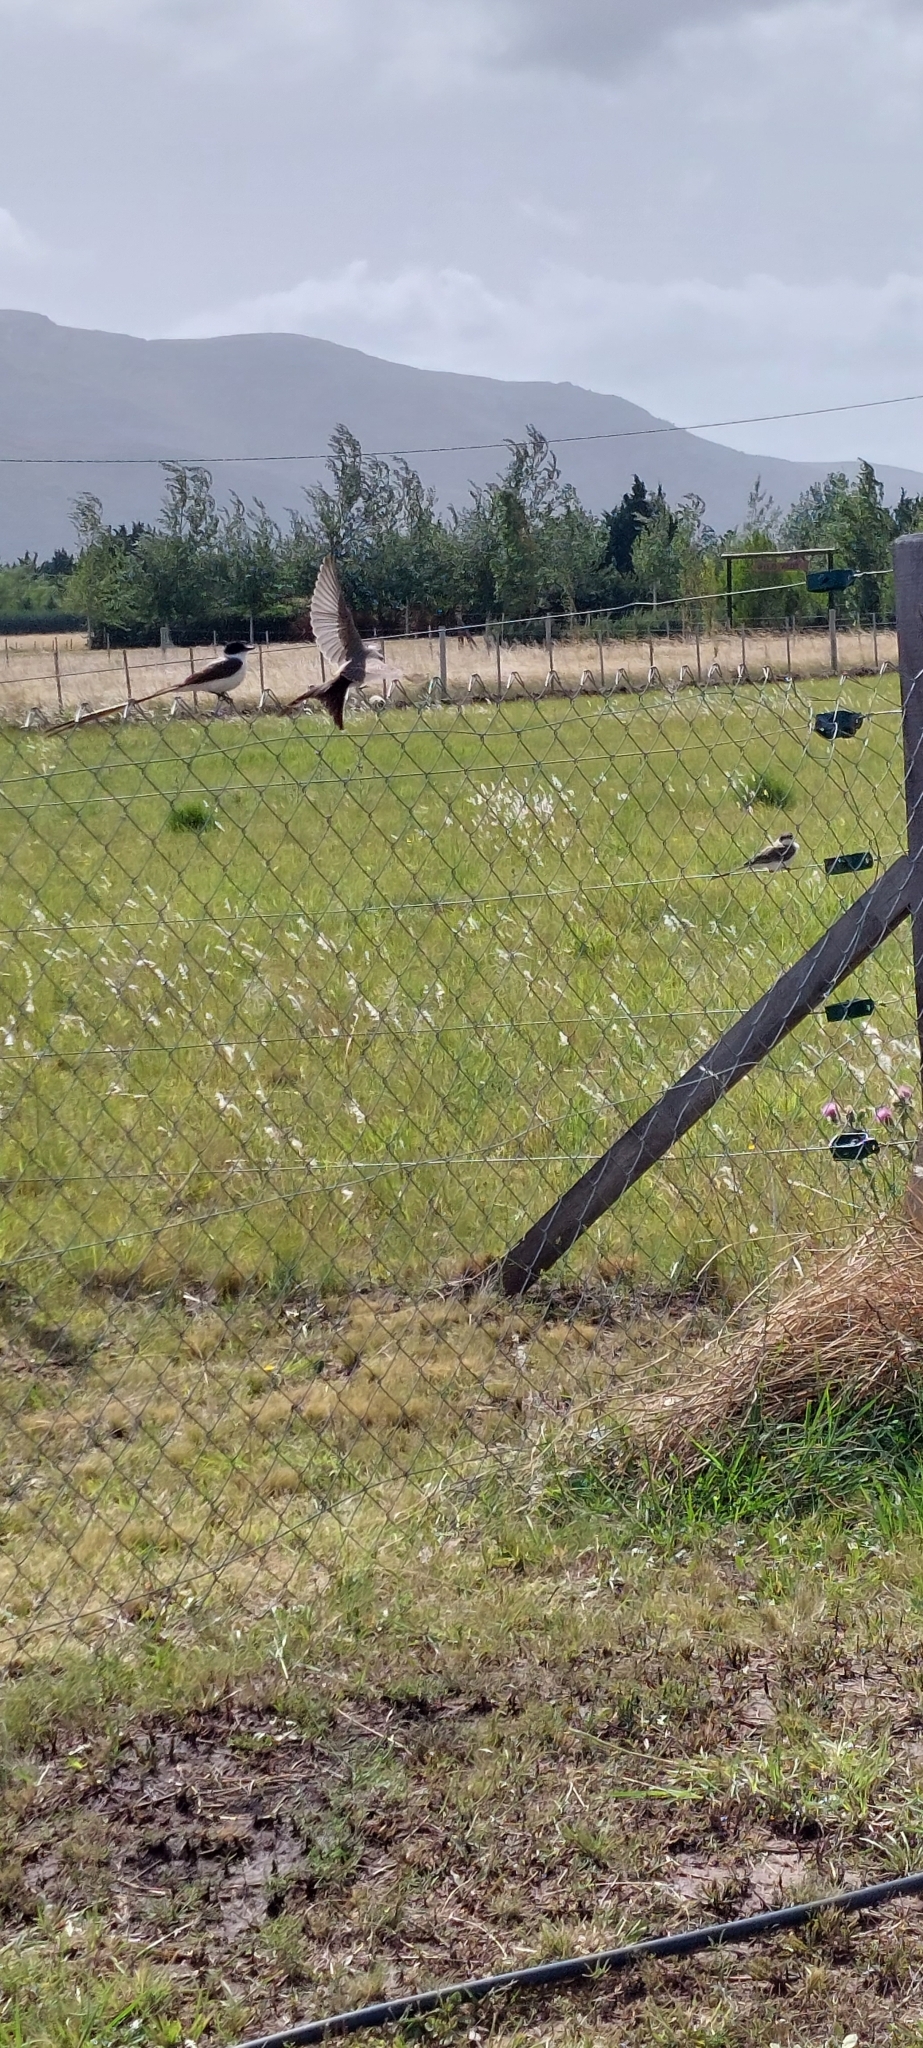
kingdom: Animalia
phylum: Chordata
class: Aves
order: Passeriformes
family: Tyrannidae
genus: Tyrannus
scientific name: Tyrannus savana
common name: Fork-tailed flycatcher
